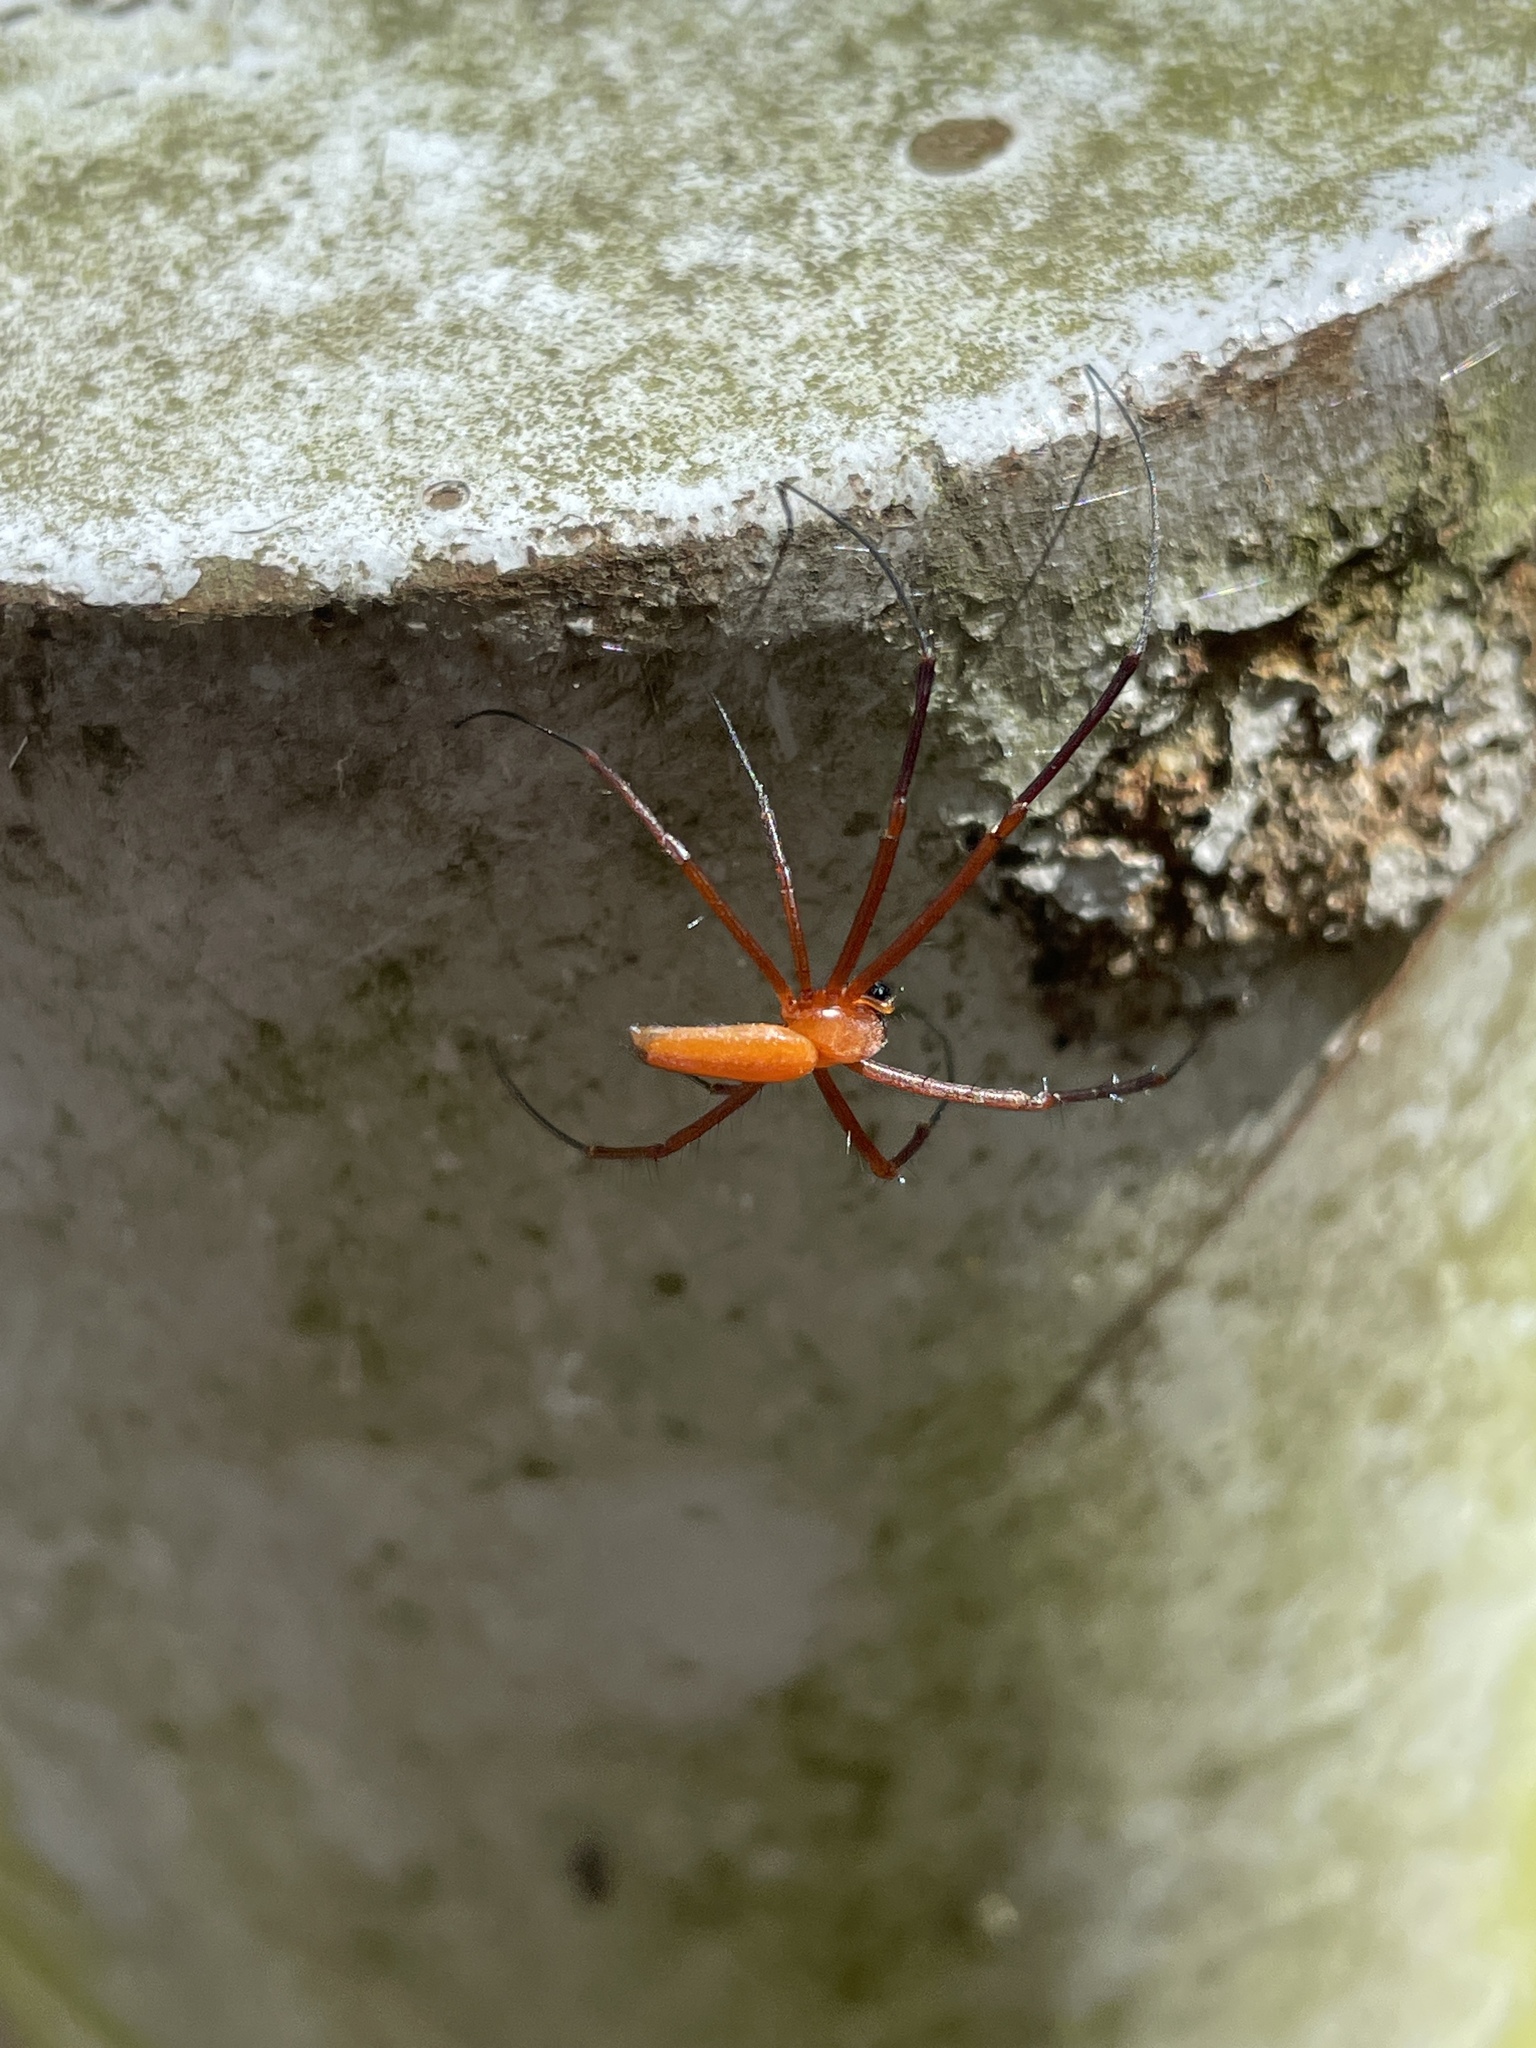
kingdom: Animalia
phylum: Arthropoda
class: Arachnida
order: Araneae
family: Araneidae
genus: Nephila
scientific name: Nephila pilipes
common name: Giant golden orb weaver
